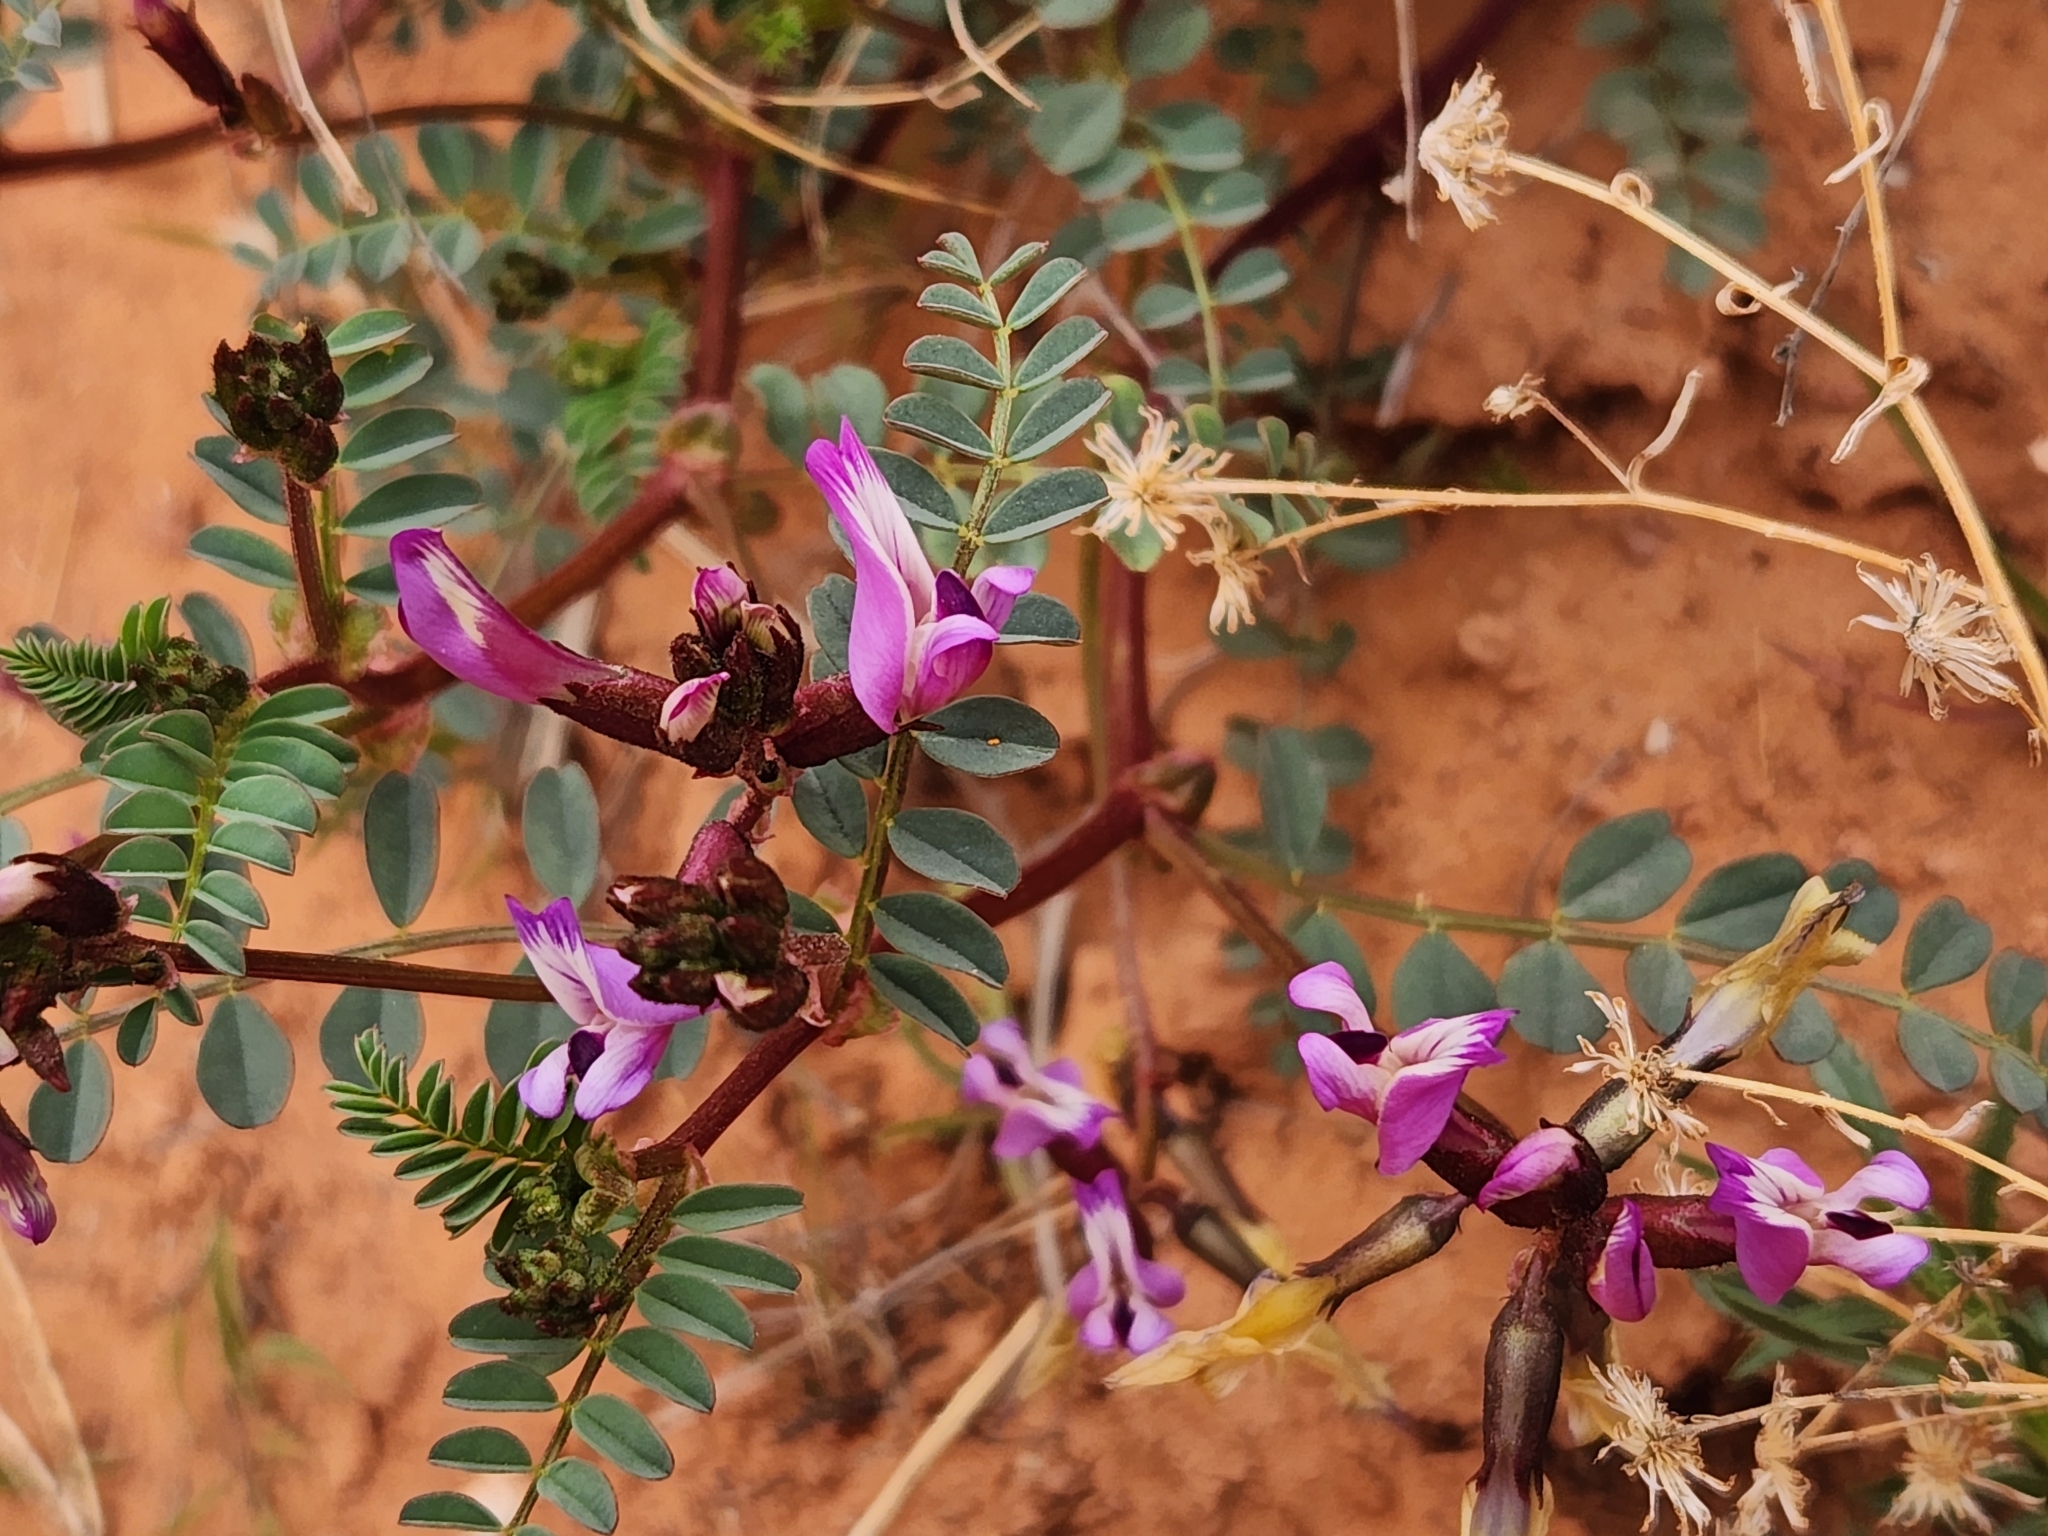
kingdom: Plantae
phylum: Tracheophyta
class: Magnoliopsida
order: Fabales
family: Fabaceae
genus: Astragalus
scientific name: Astragalus preussii
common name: Preuss's milk-vetch
